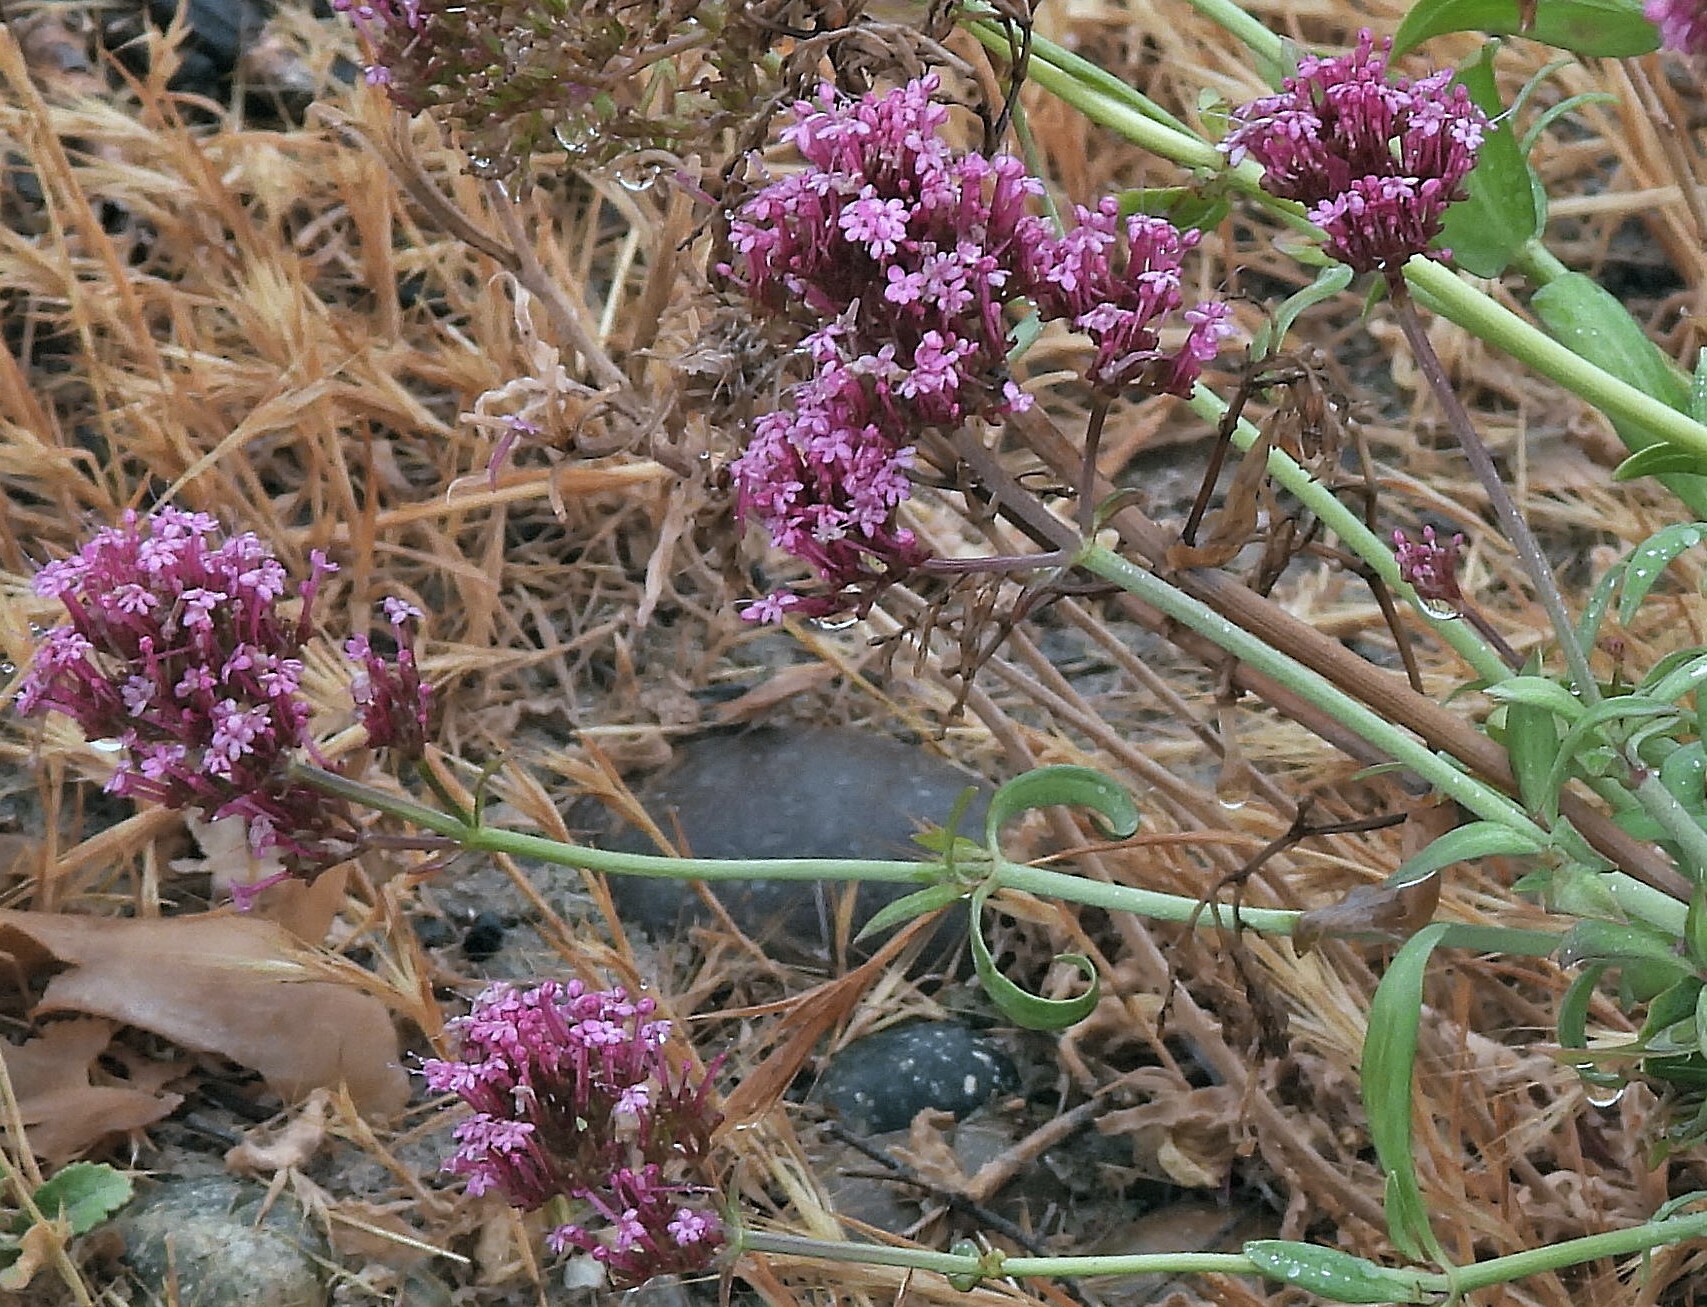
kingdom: Plantae
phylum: Tracheophyta
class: Magnoliopsida
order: Dipsacales
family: Caprifoliaceae
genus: Centranthus
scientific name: Centranthus ruber
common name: Red valerian
